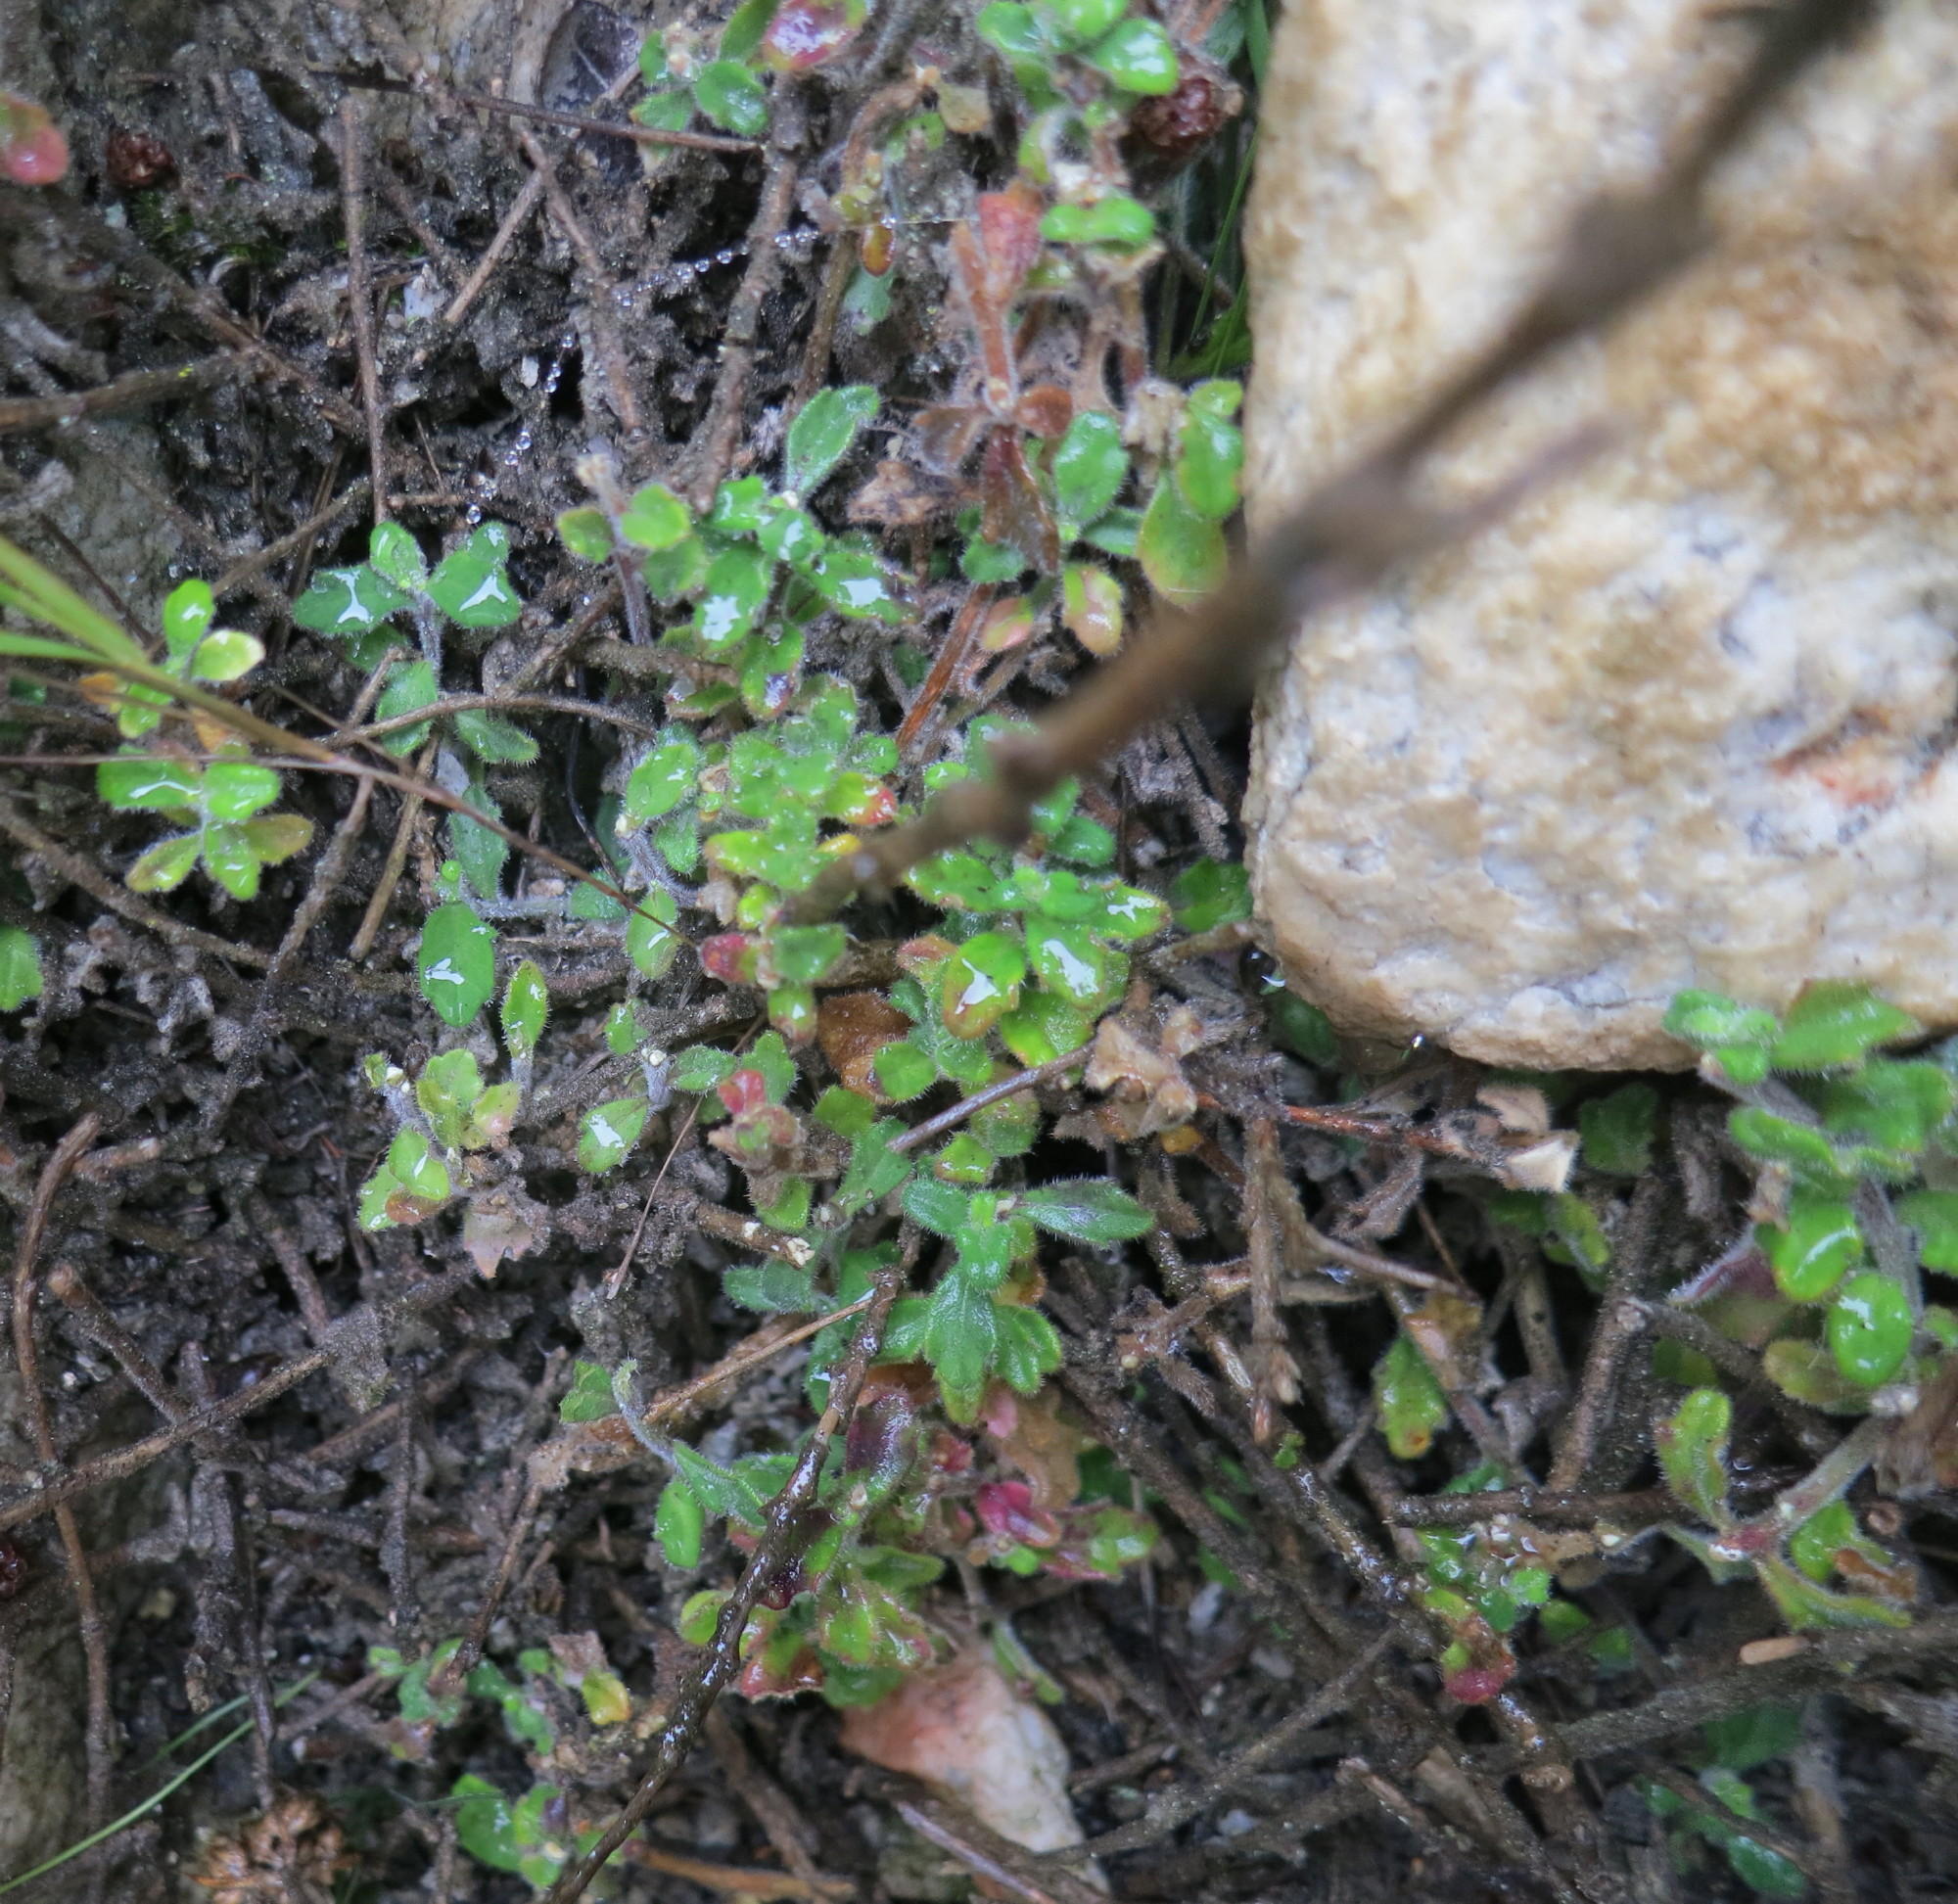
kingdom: Plantae
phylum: Tracheophyta
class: Magnoliopsida
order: Asterales
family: Campanulaceae
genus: Lobelia
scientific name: Lobelia dichroma
